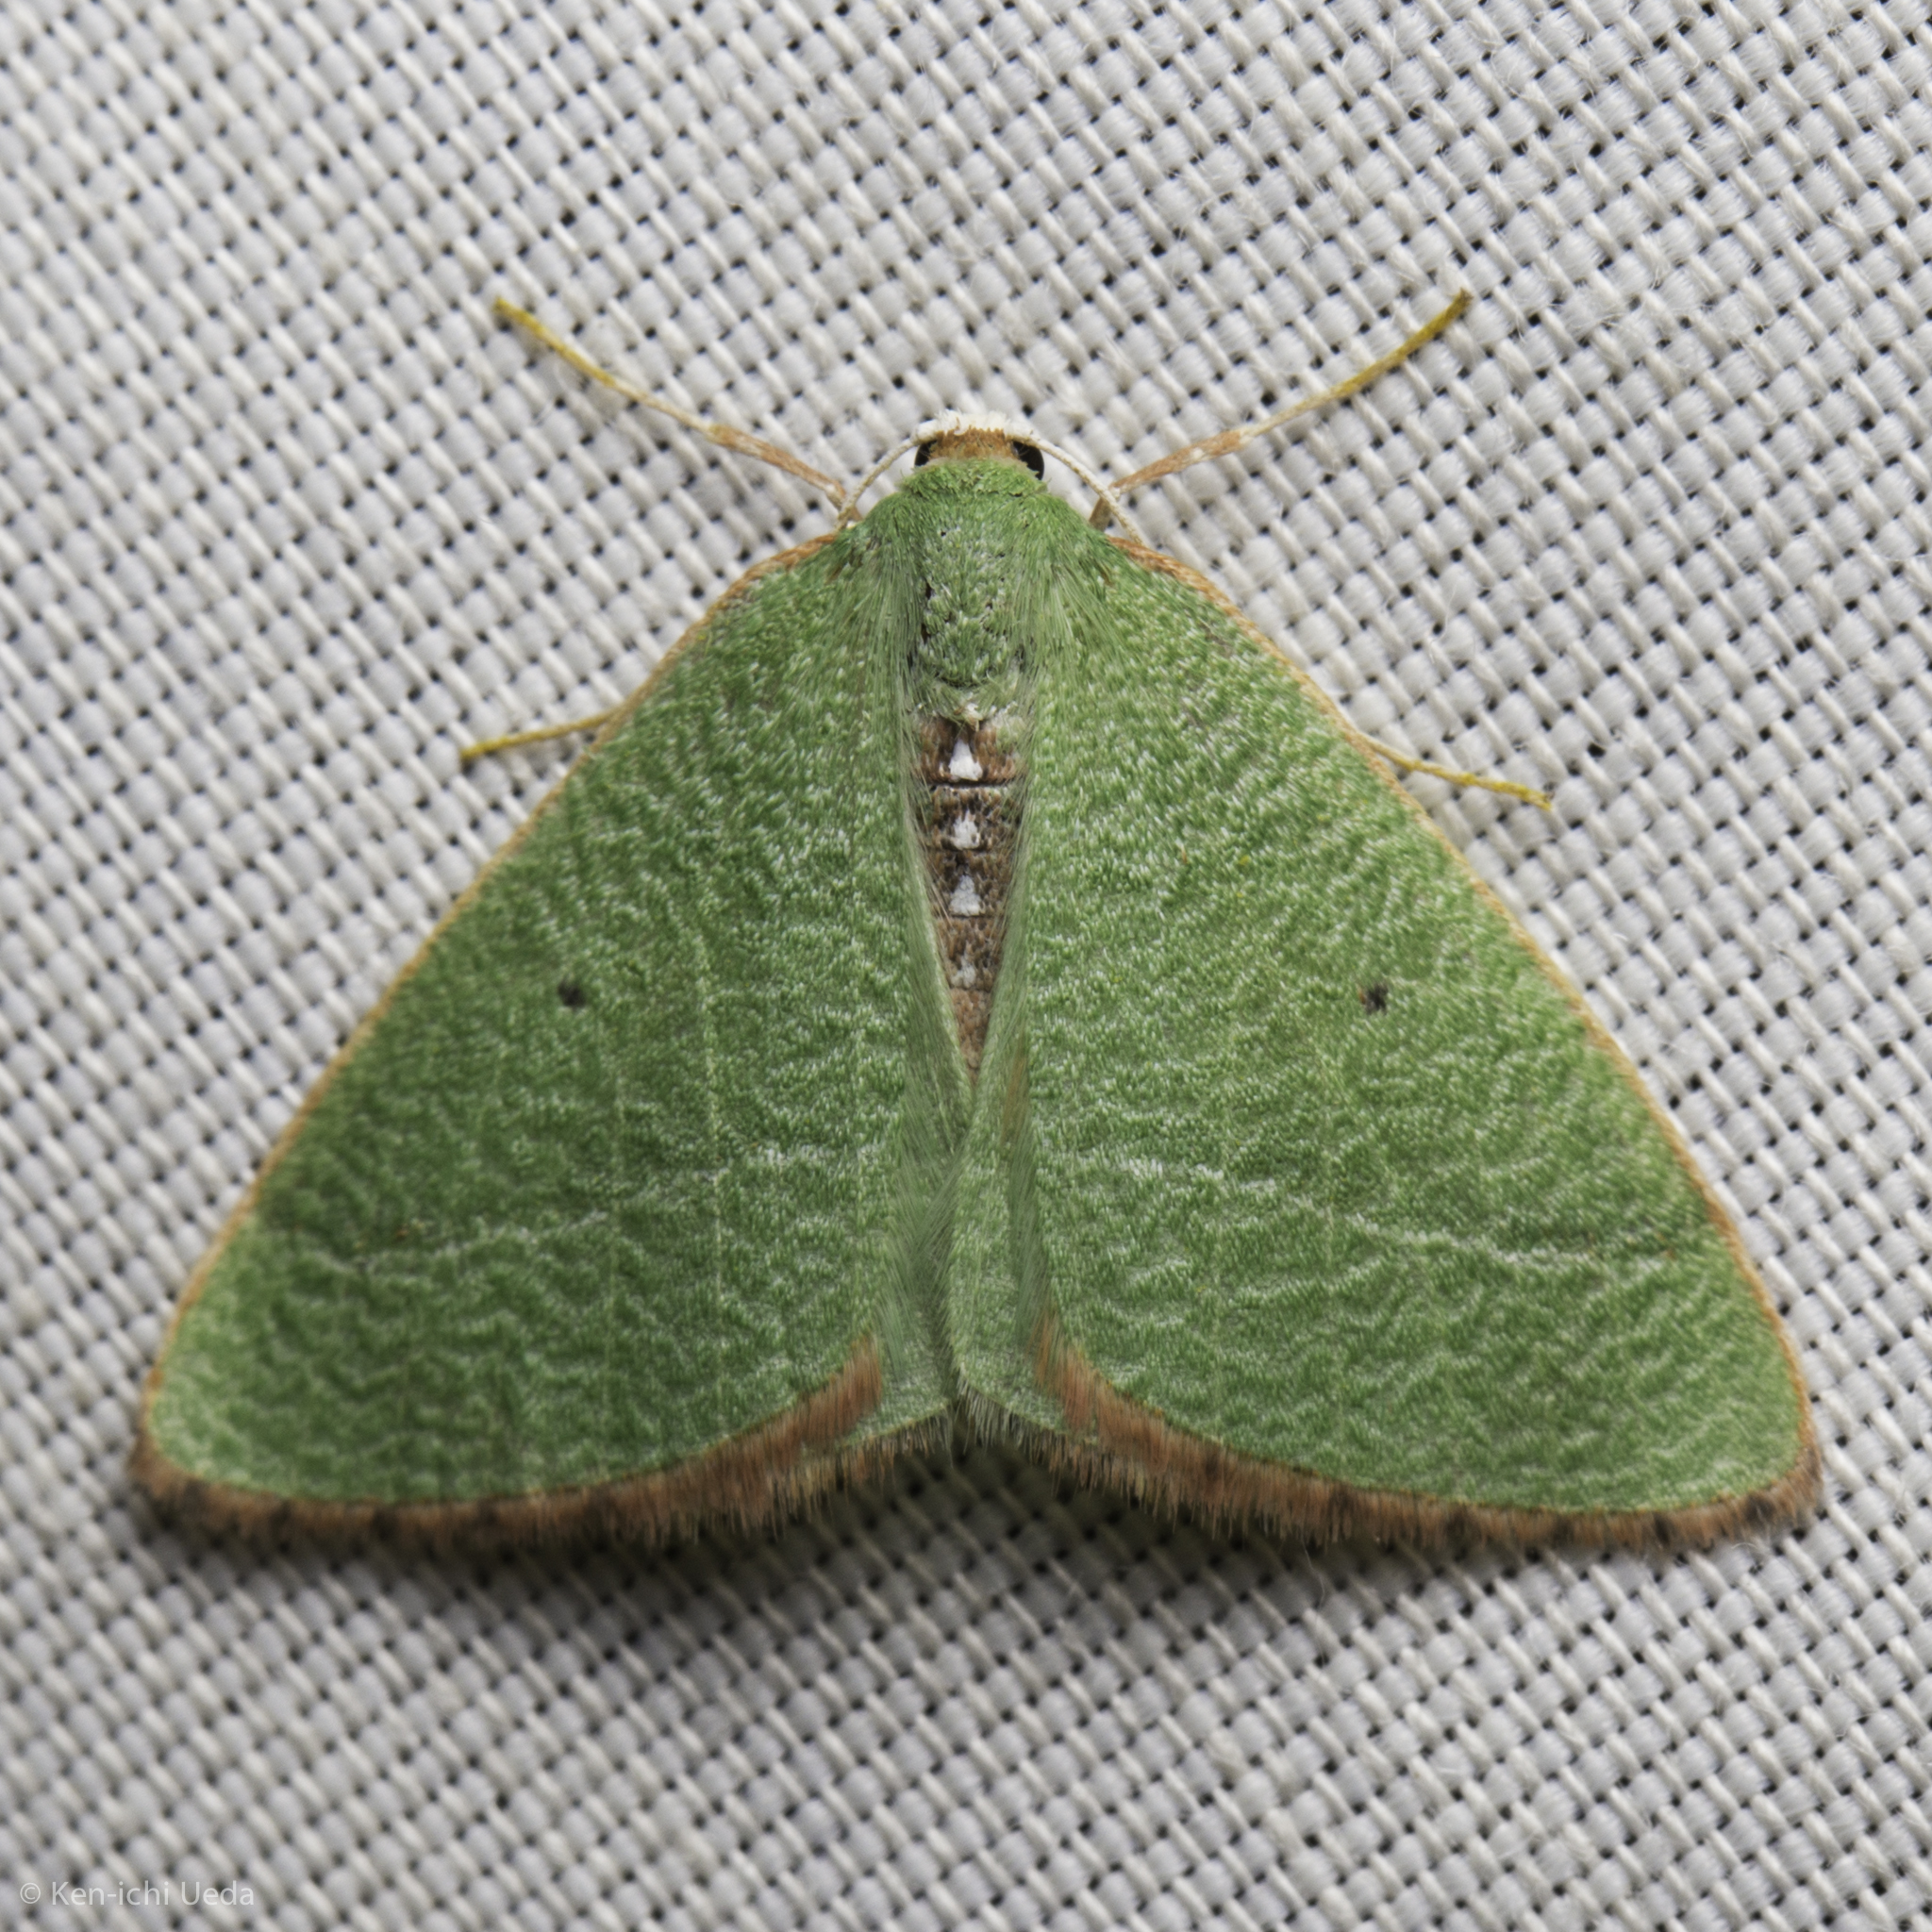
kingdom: Animalia
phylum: Arthropoda
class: Insecta
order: Lepidoptera
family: Geometridae
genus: Nemoria
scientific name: Nemoria pulcherrima
